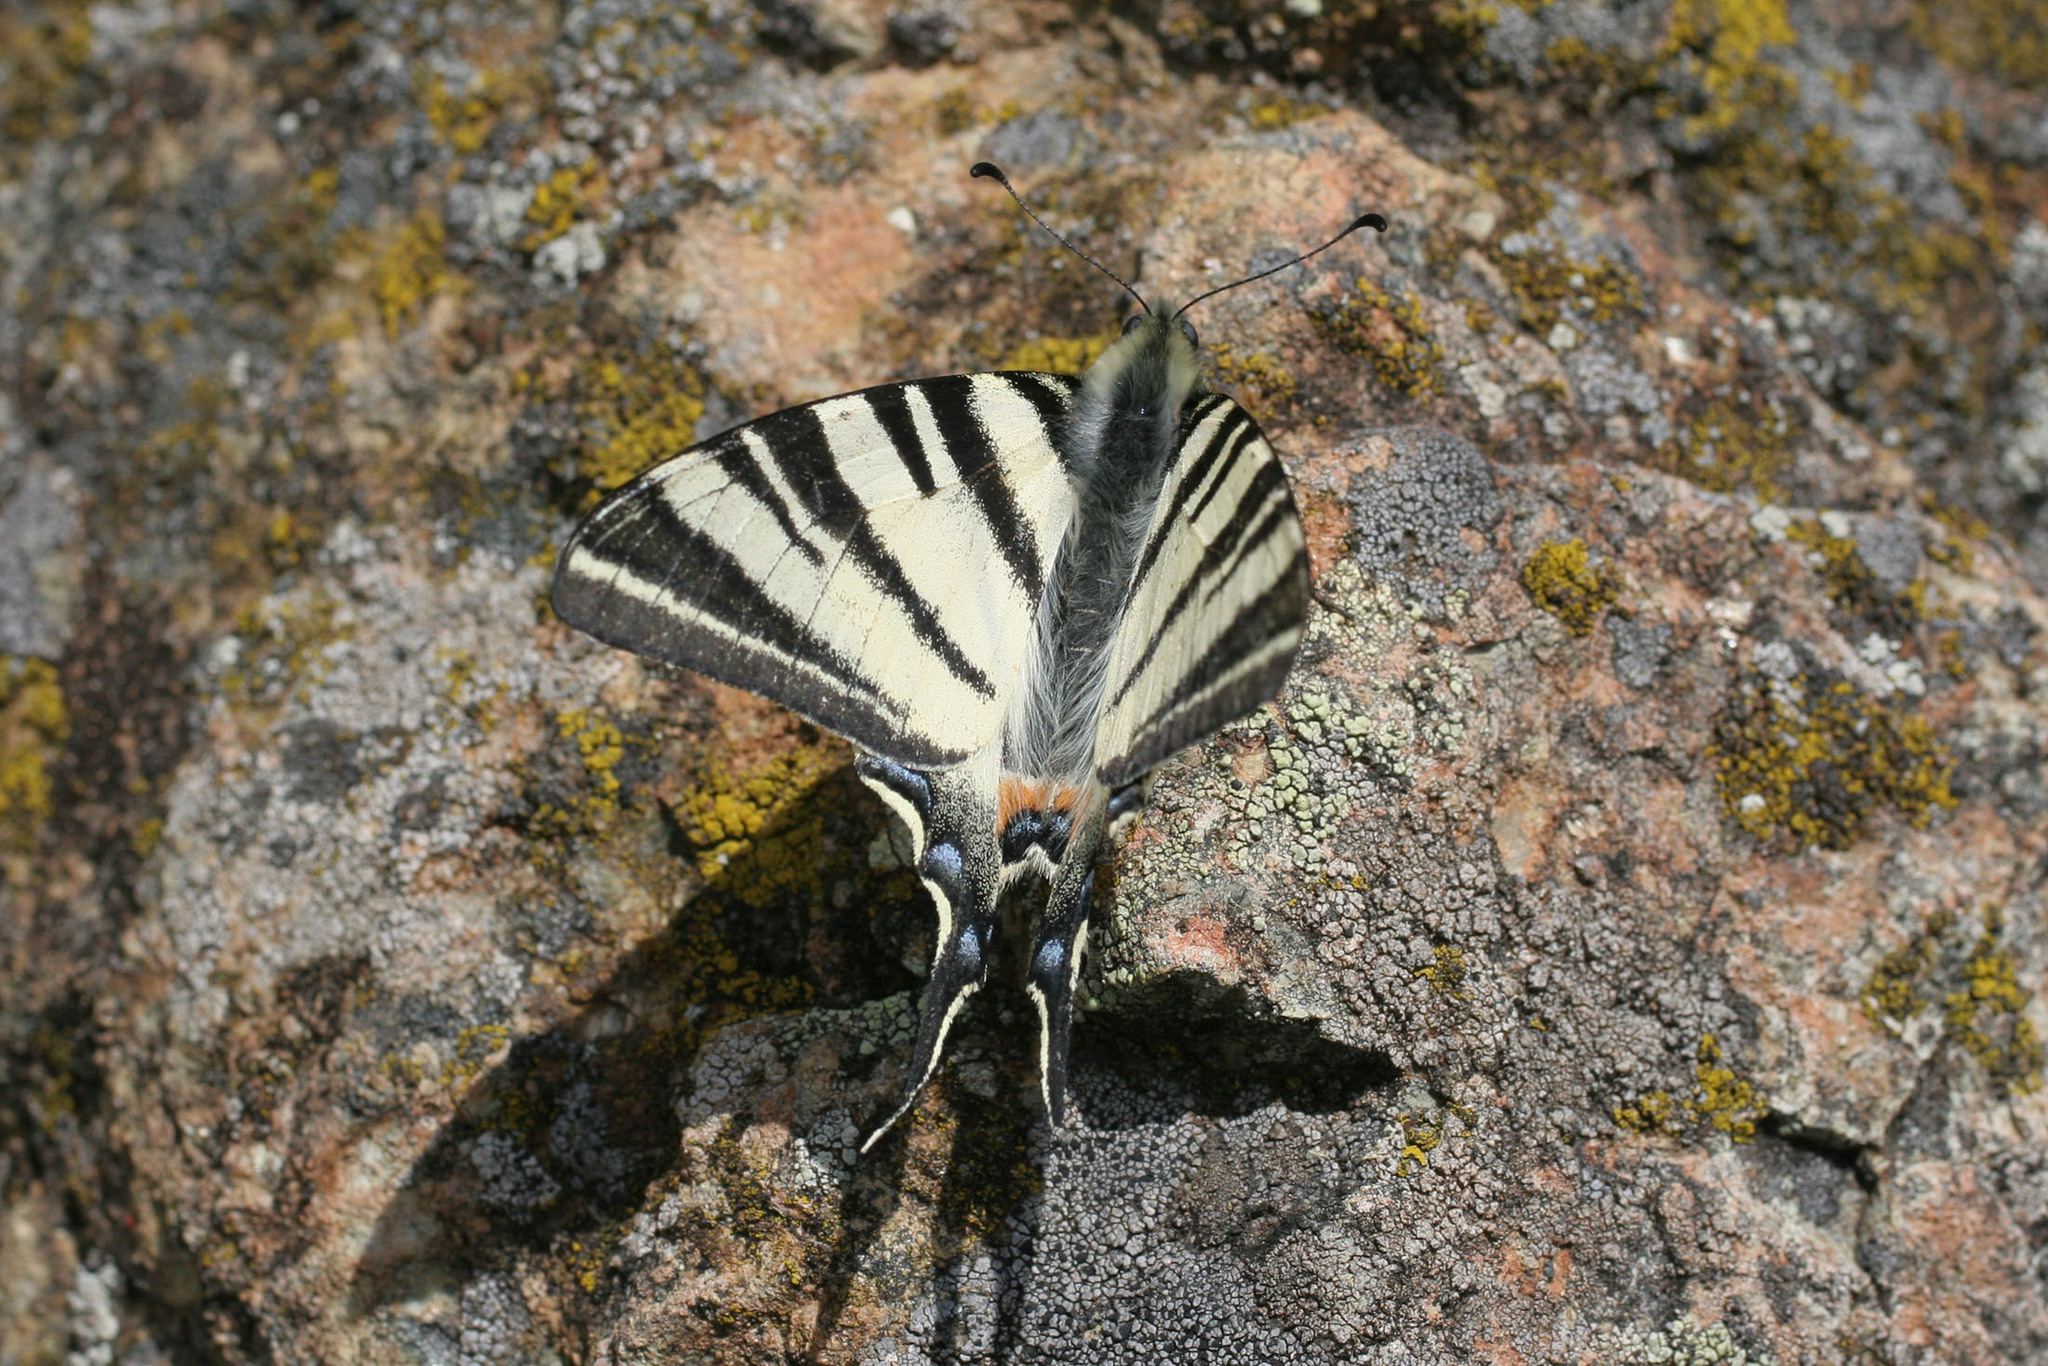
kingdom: Animalia
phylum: Arthropoda
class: Insecta
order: Lepidoptera
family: Papilionidae
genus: Iphiclides
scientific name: Iphiclides podalirius
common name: Scarce swallowtail
